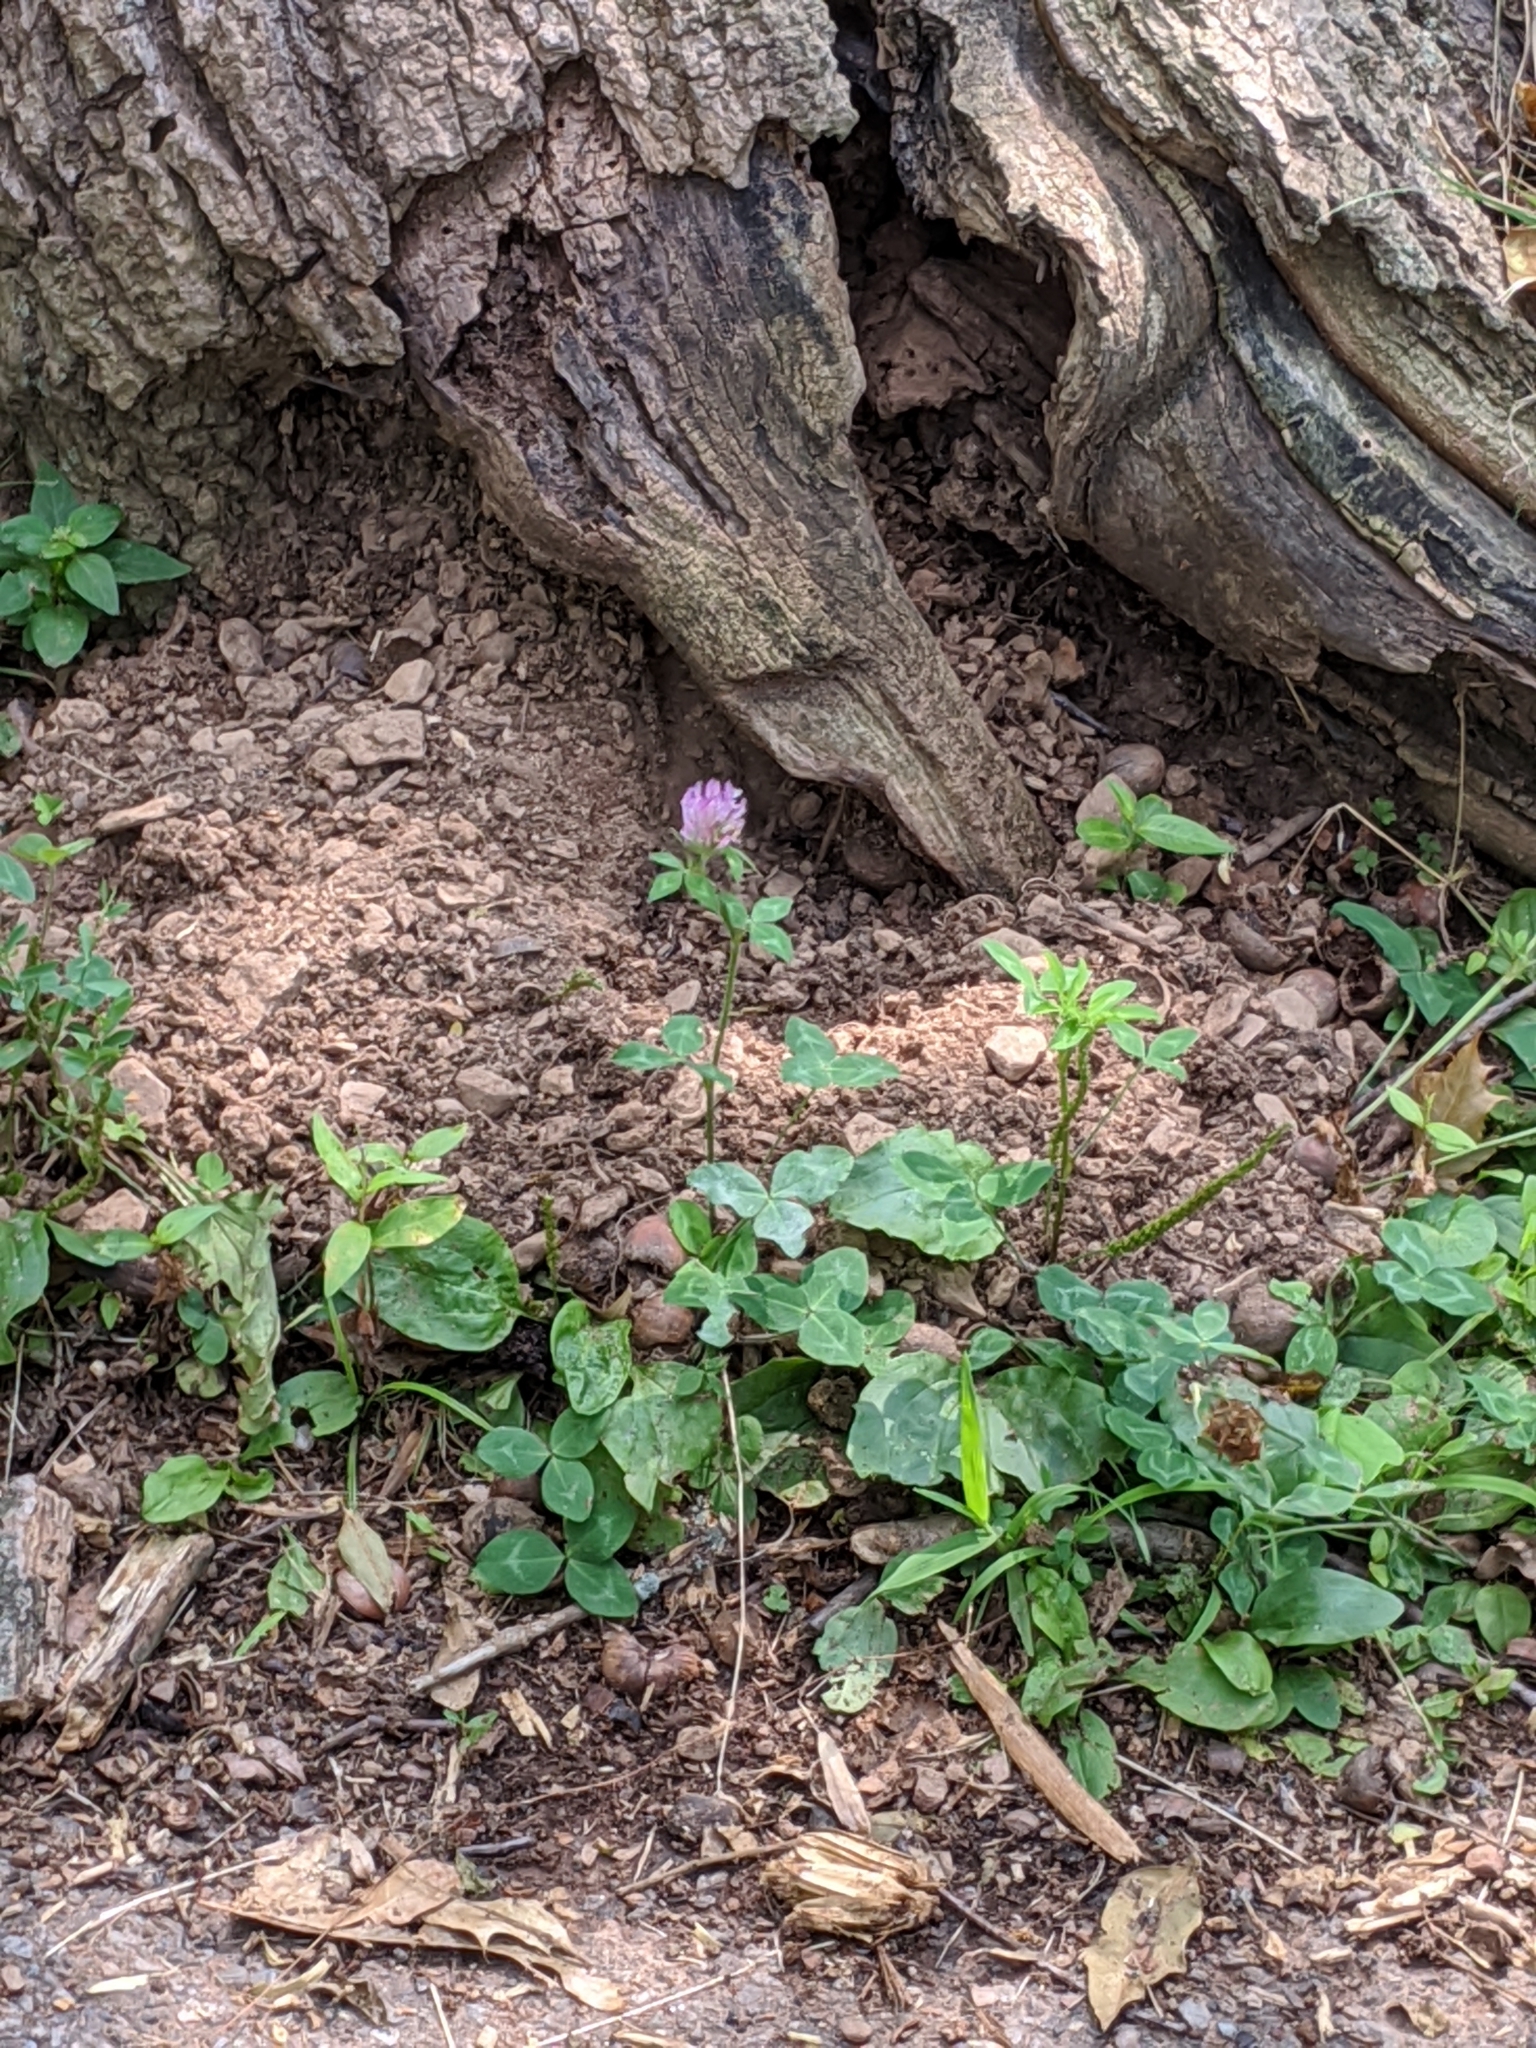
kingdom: Plantae
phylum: Tracheophyta
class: Magnoliopsida
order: Fabales
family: Fabaceae
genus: Trifolium
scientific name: Trifolium pratense
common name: Red clover
